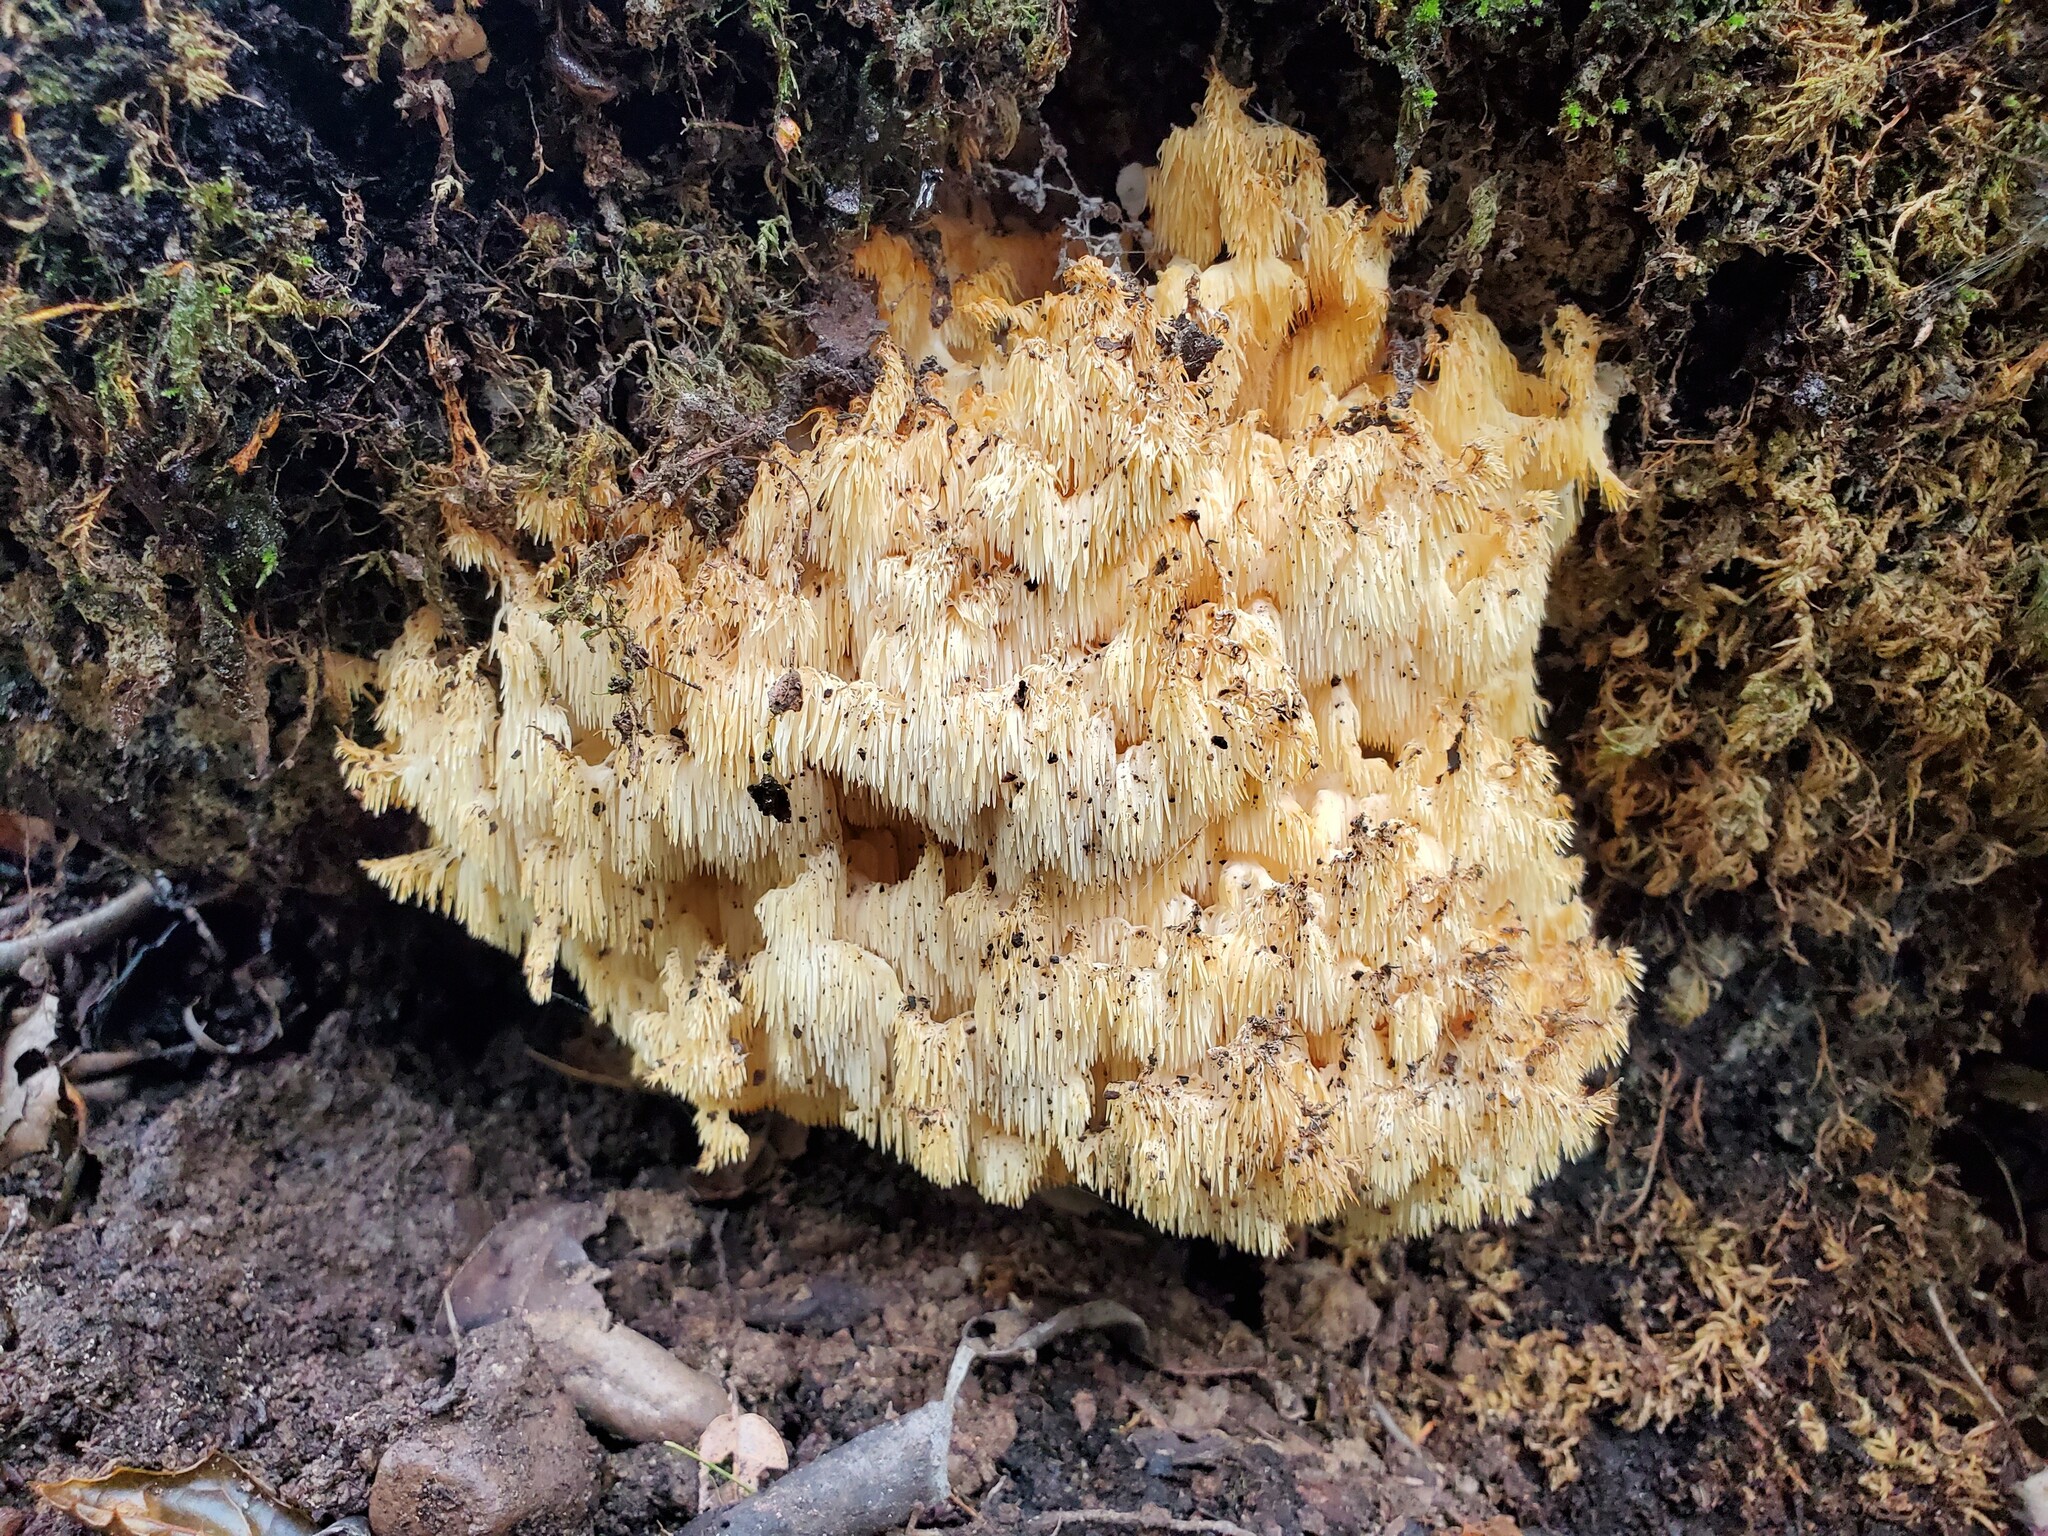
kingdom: Fungi
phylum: Basidiomycota
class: Agaricomycetes
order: Russulales
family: Hericiaceae
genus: Hericium
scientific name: Hericium coralloides
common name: Coral tooth
